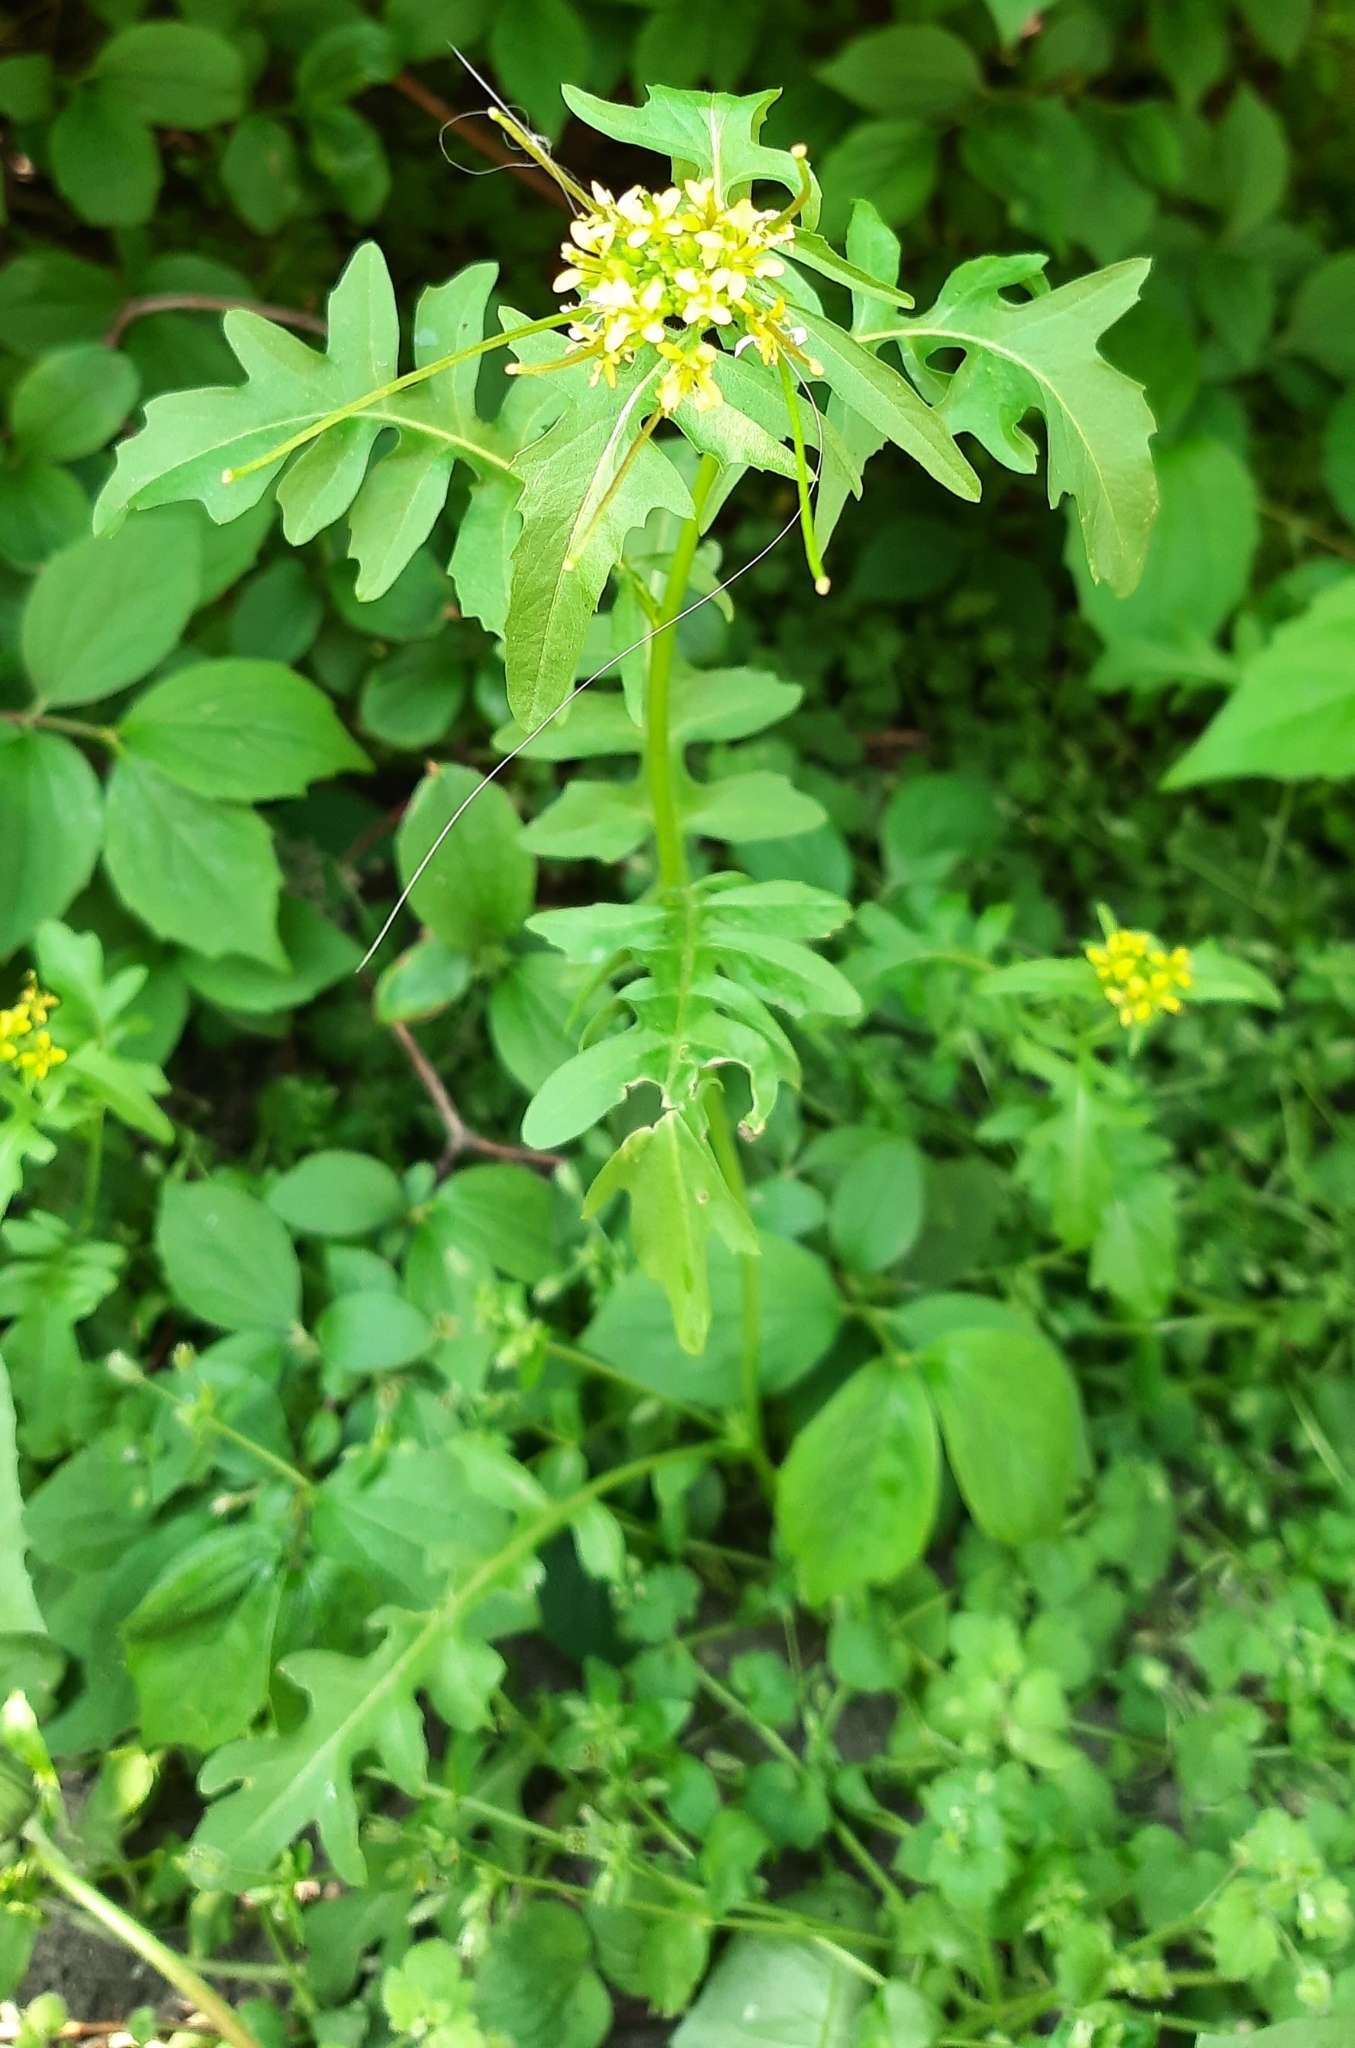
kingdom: Plantae
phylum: Tracheophyta
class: Magnoliopsida
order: Brassicales
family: Brassicaceae
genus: Sisymbrium
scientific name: Sisymbrium irio
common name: London rocket
